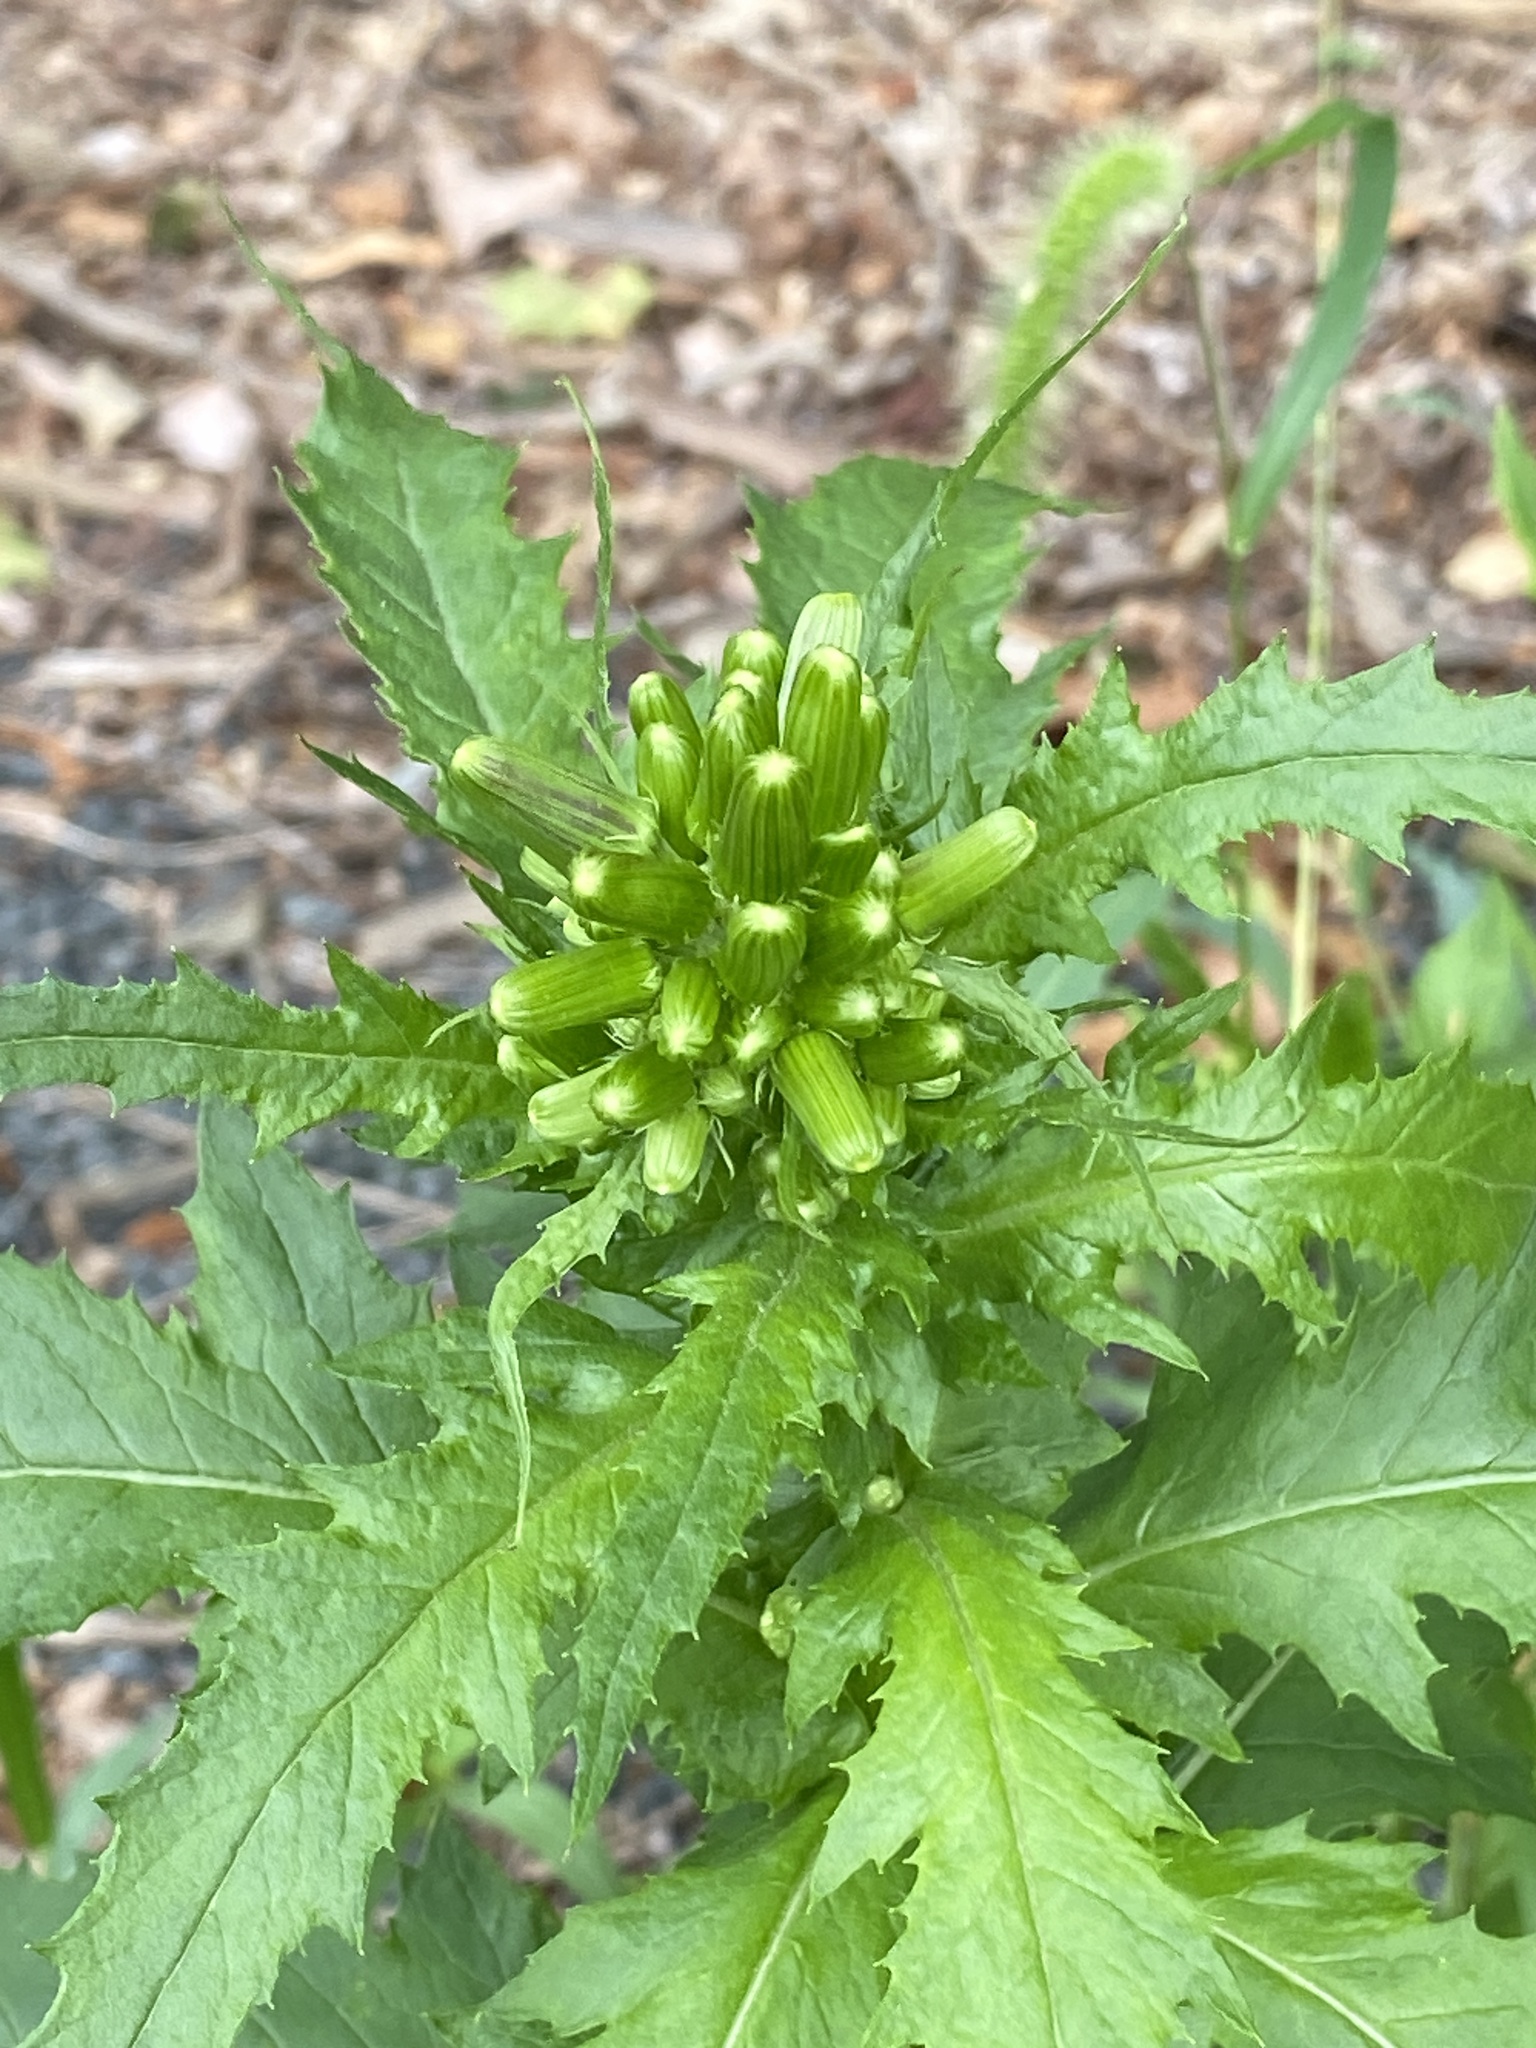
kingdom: Plantae
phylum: Tracheophyta
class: Magnoliopsida
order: Asterales
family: Asteraceae
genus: Erechtites
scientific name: Erechtites hieraciifolius
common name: American burnweed
